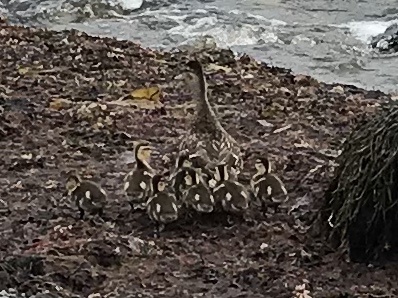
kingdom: Animalia
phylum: Chordata
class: Aves
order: Anseriformes
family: Anatidae
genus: Anas
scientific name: Anas platyrhynchos
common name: Mallard
